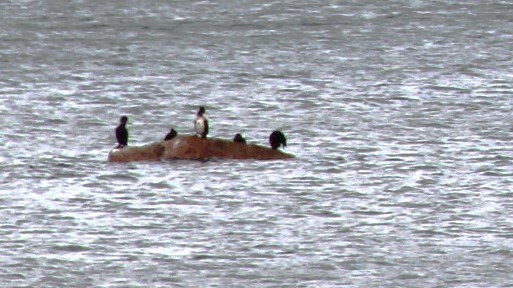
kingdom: Animalia
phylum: Chordata
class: Aves
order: Suliformes
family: Phalacrocoracidae
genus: Phalacrocorax
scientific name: Phalacrocorax carbo
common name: Great cormorant
